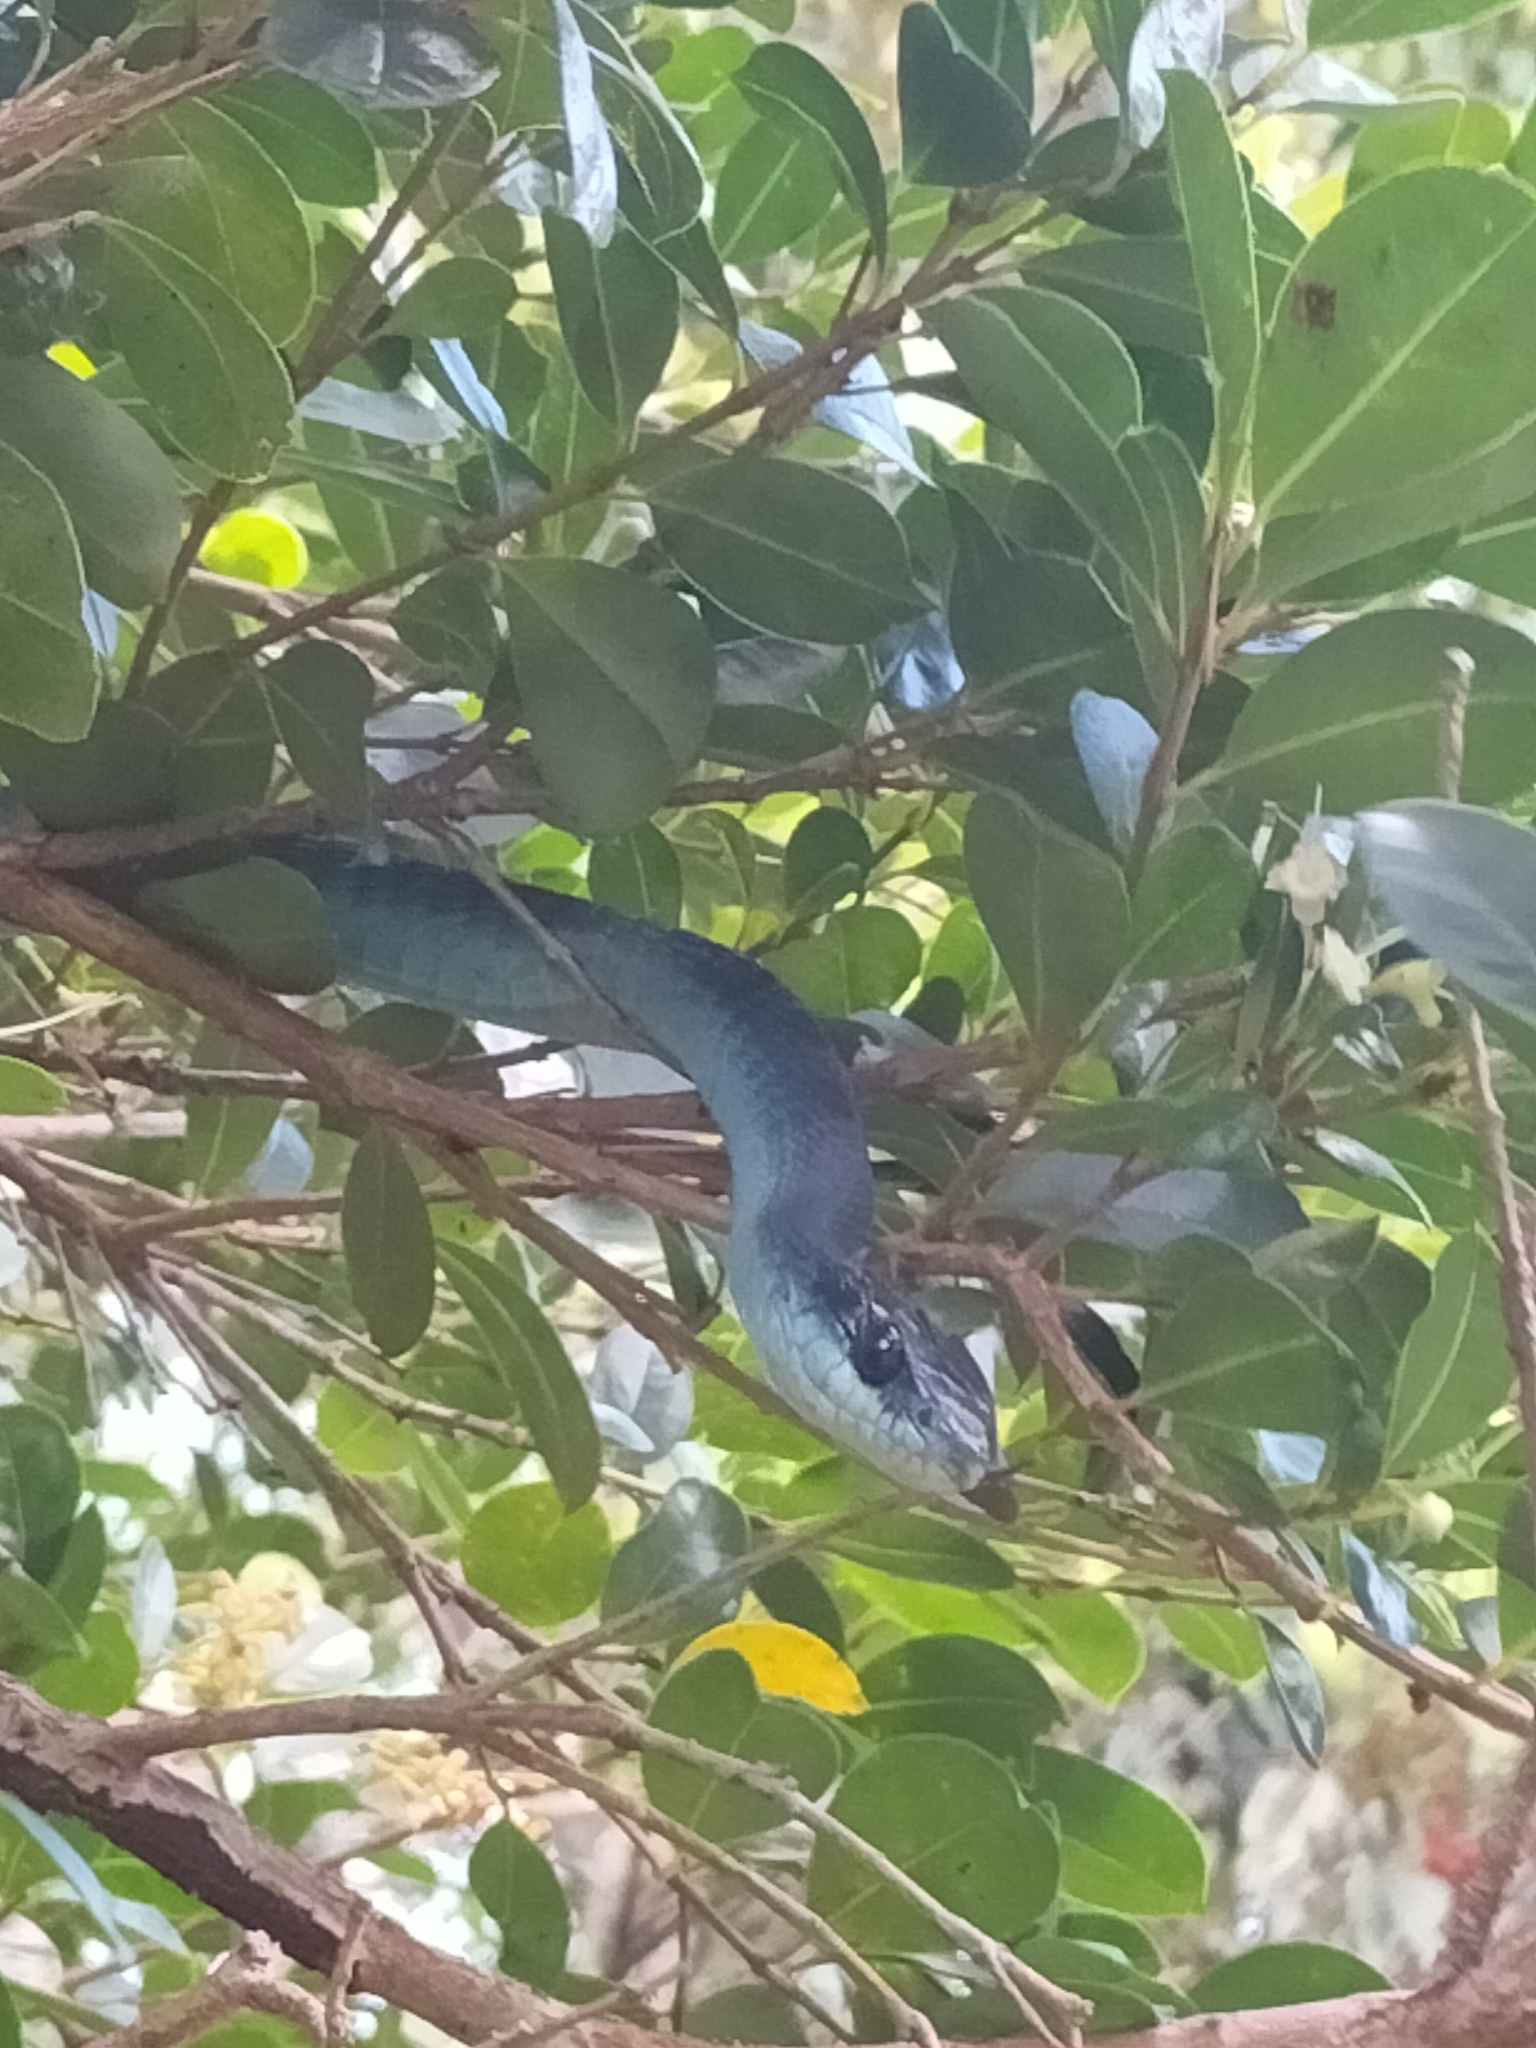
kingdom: Animalia
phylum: Chordata
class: Squamata
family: Colubridae
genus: Dendrelaphis
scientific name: Dendrelaphis punctulatus
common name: Common tree snake
